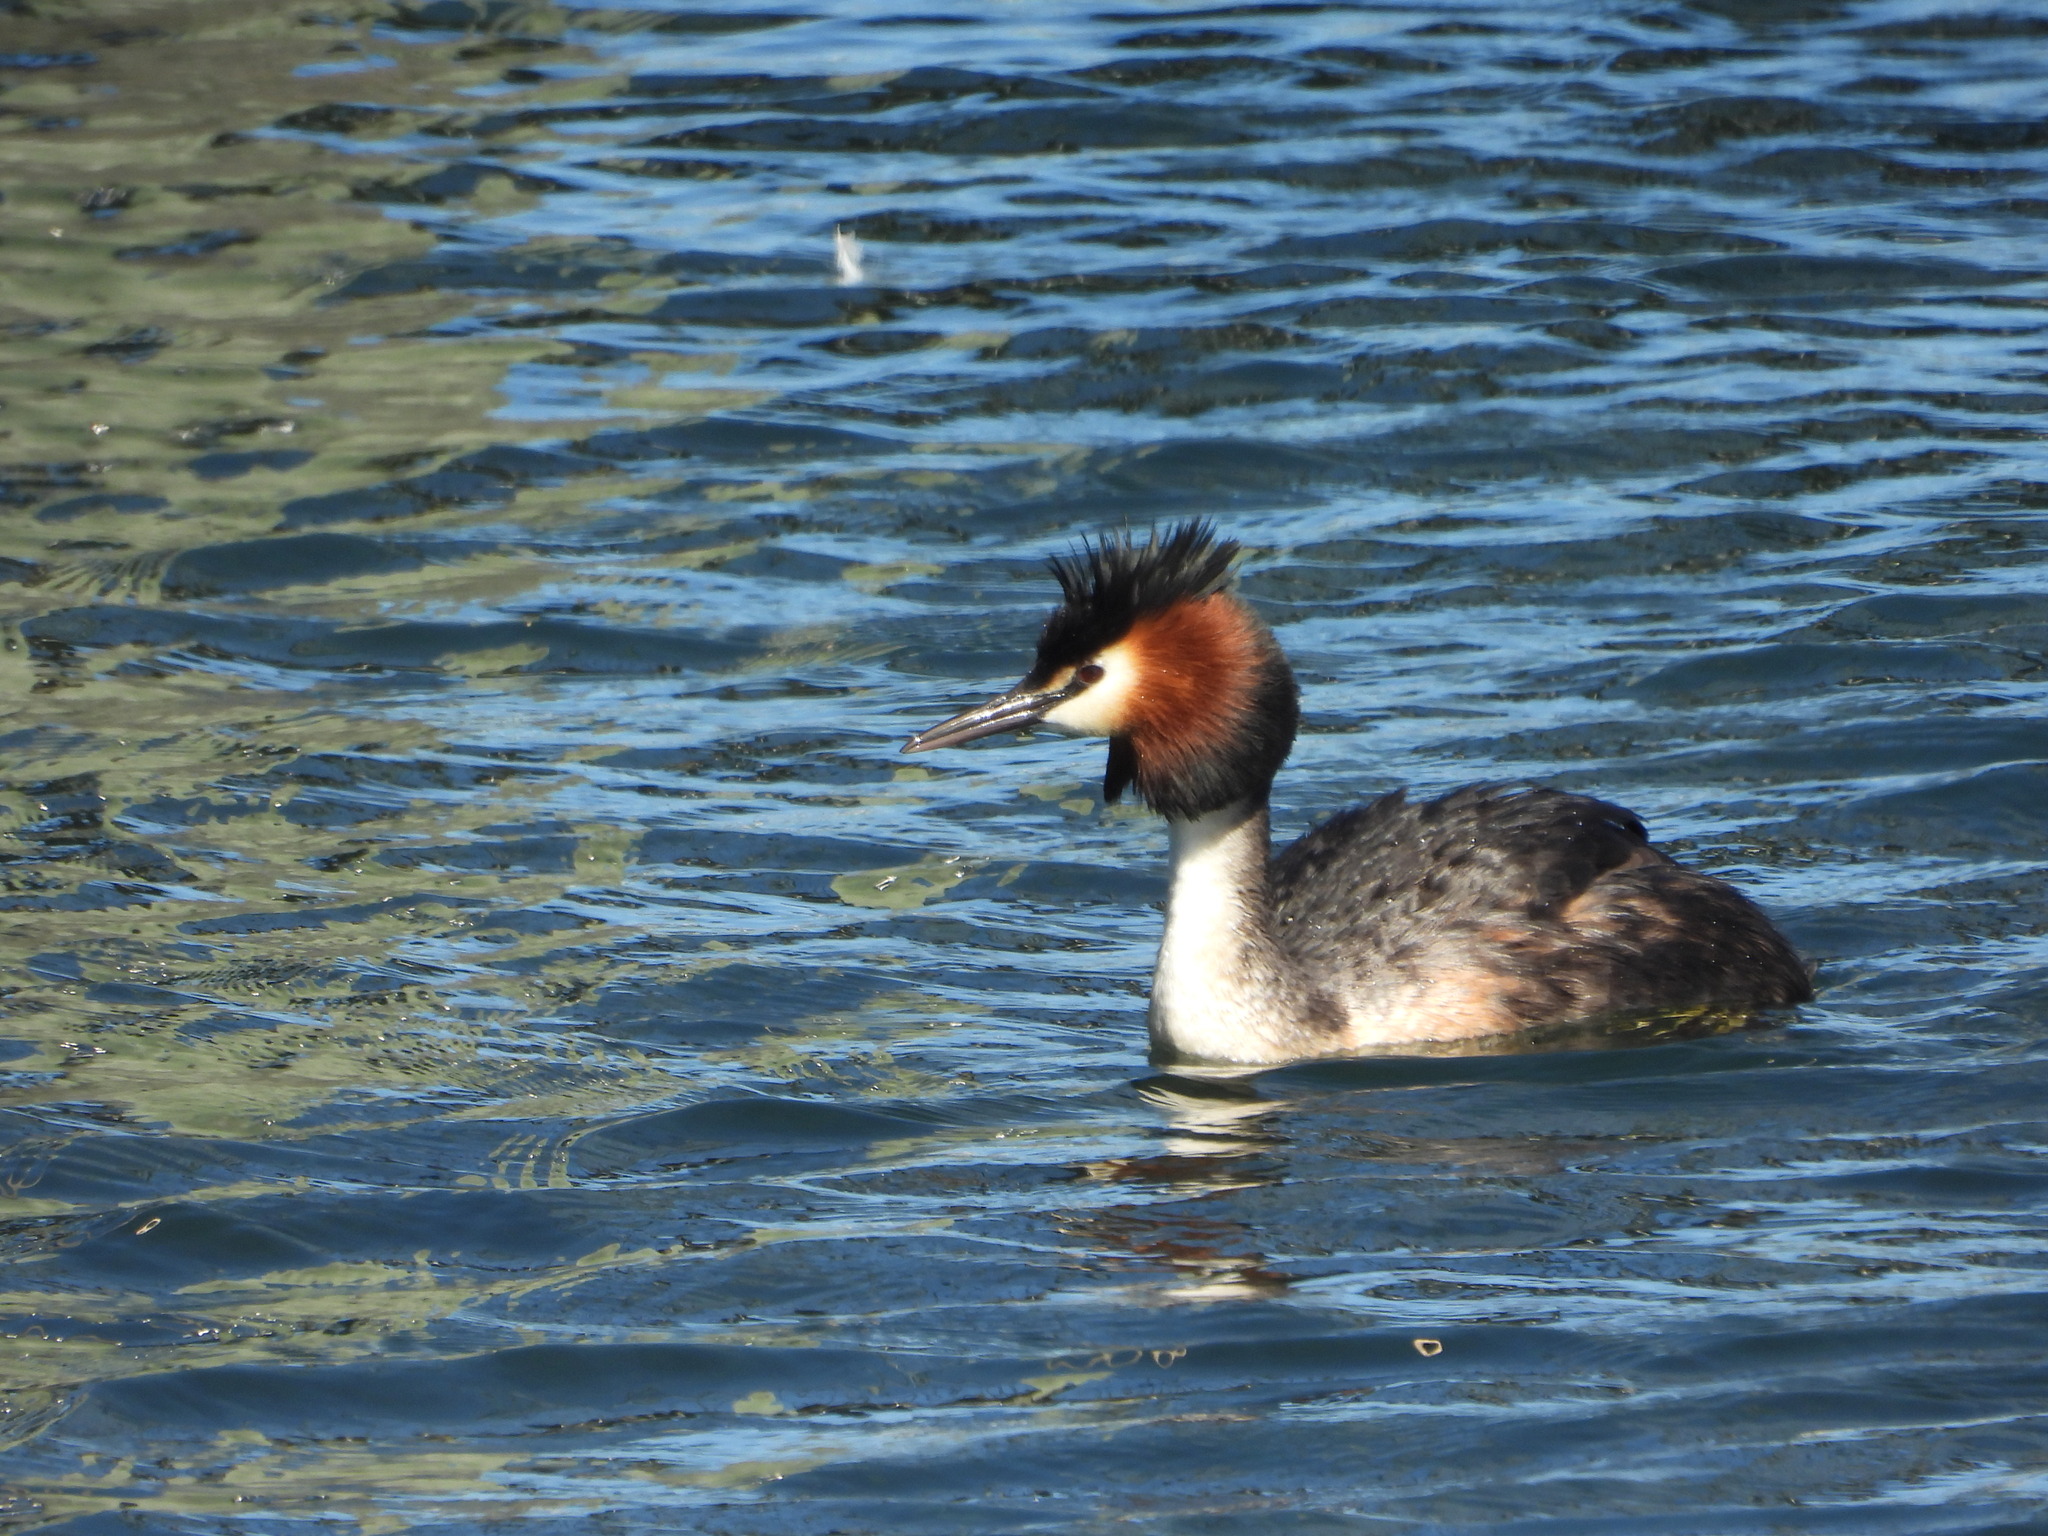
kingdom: Animalia
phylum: Chordata
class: Aves
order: Podicipediformes
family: Podicipedidae
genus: Podiceps
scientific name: Podiceps cristatus
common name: Great crested grebe
